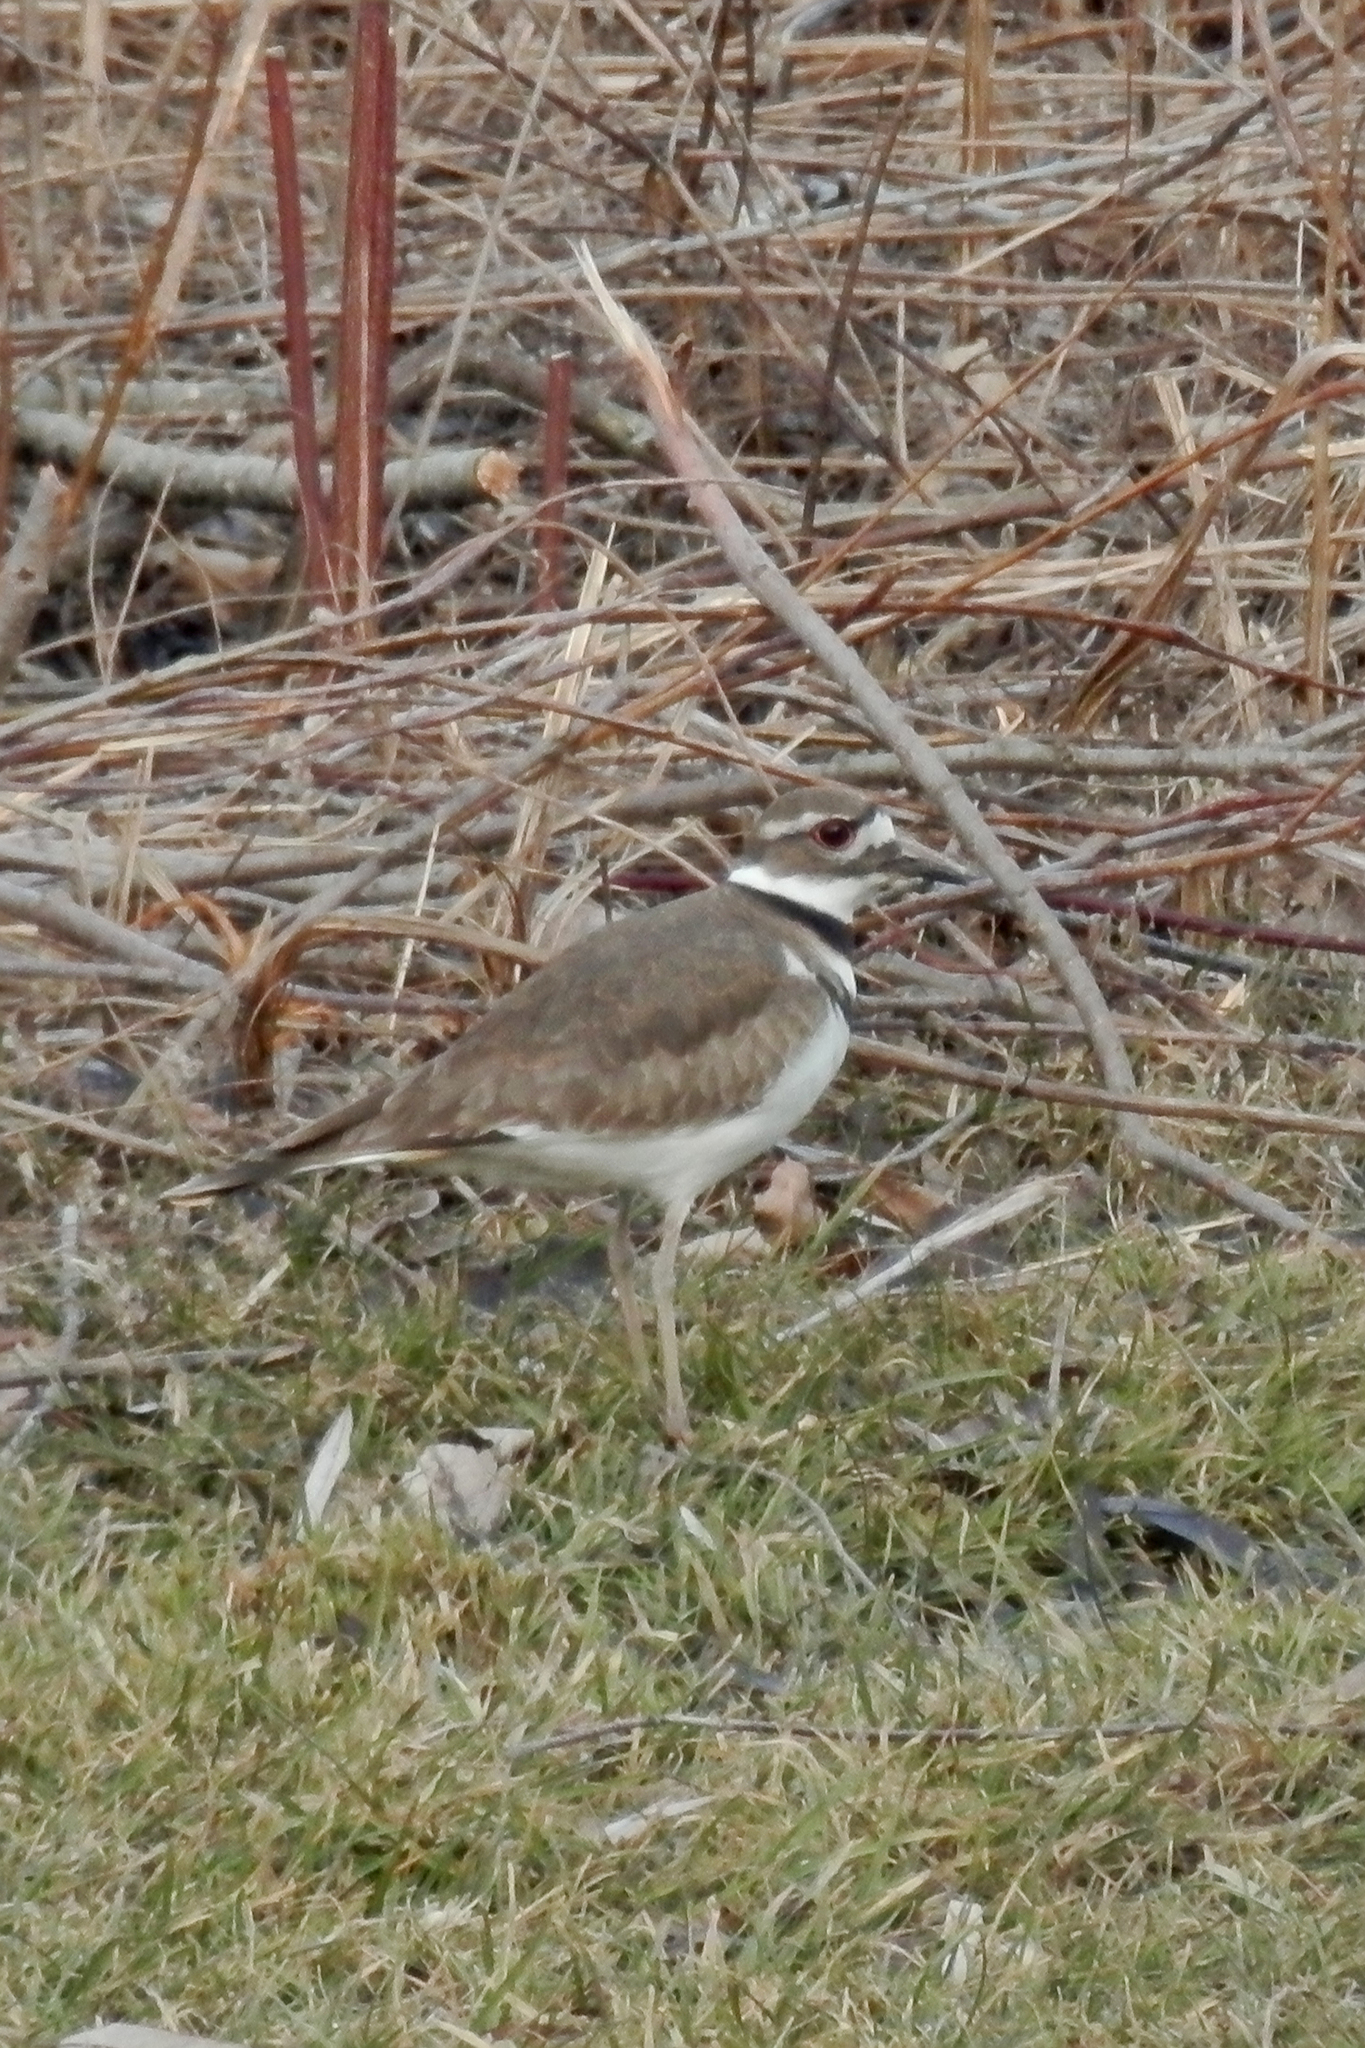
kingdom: Animalia
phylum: Chordata
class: Aves
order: Charadriiformes
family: Charadriidae
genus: Charadrius
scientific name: Charadrius vociferus
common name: Killdeer
